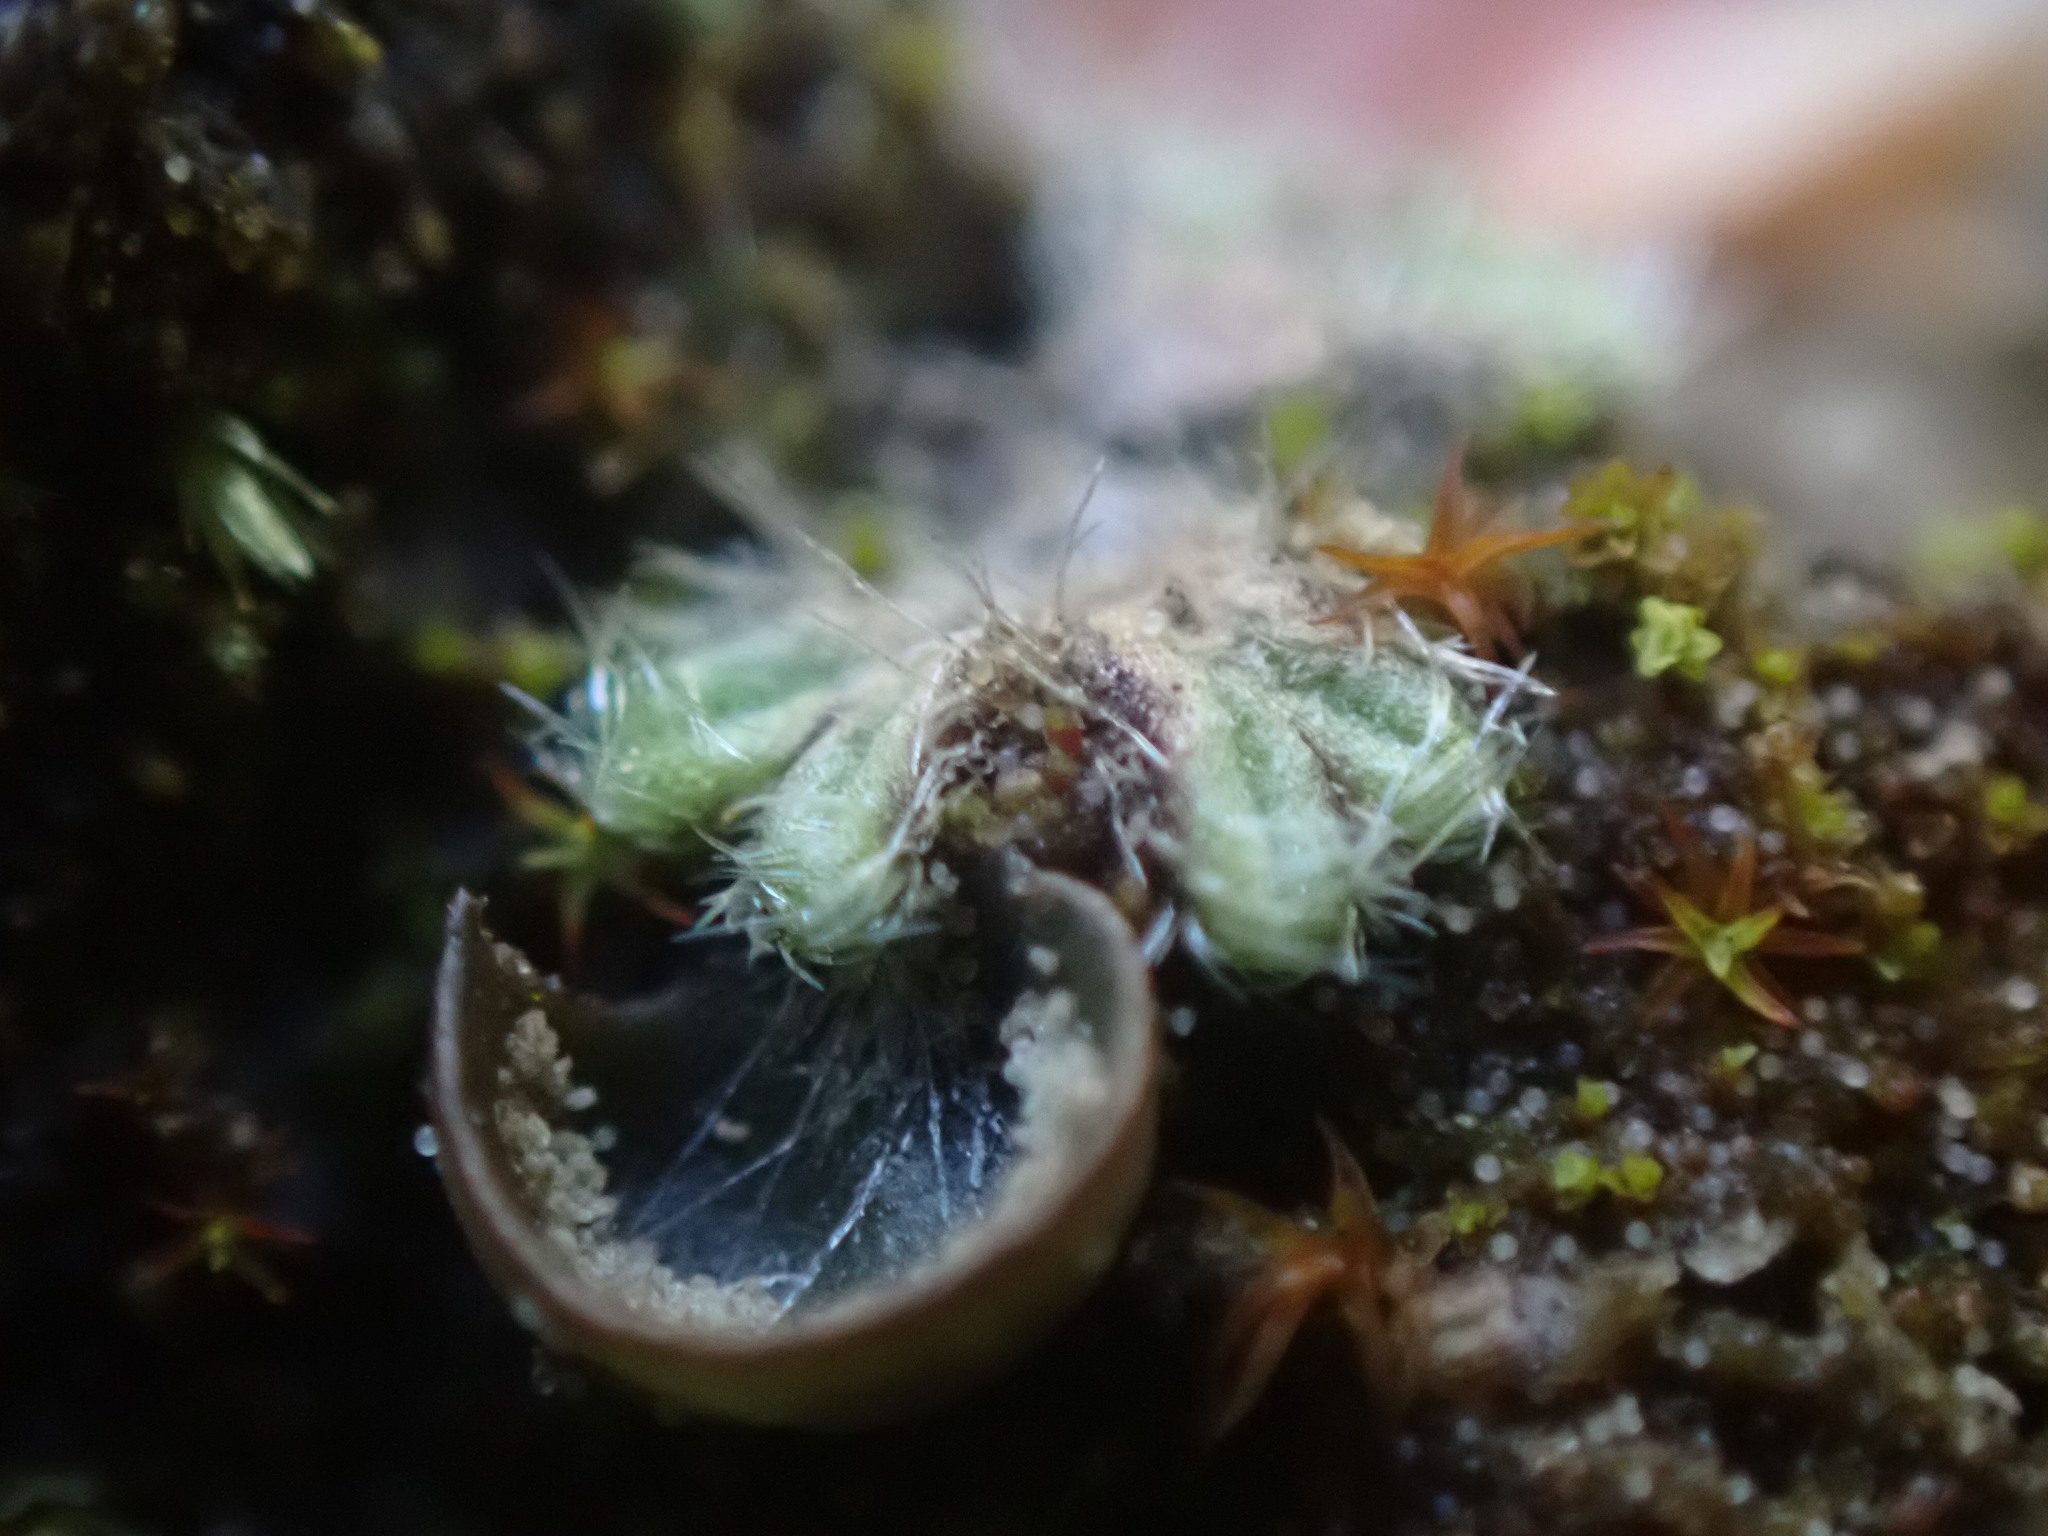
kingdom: Plantae
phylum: Marchantiophyta
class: Marchantiopsida
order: Marchantiales
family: Ricciaceae
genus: Riccia
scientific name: Riccia trichocarpa
